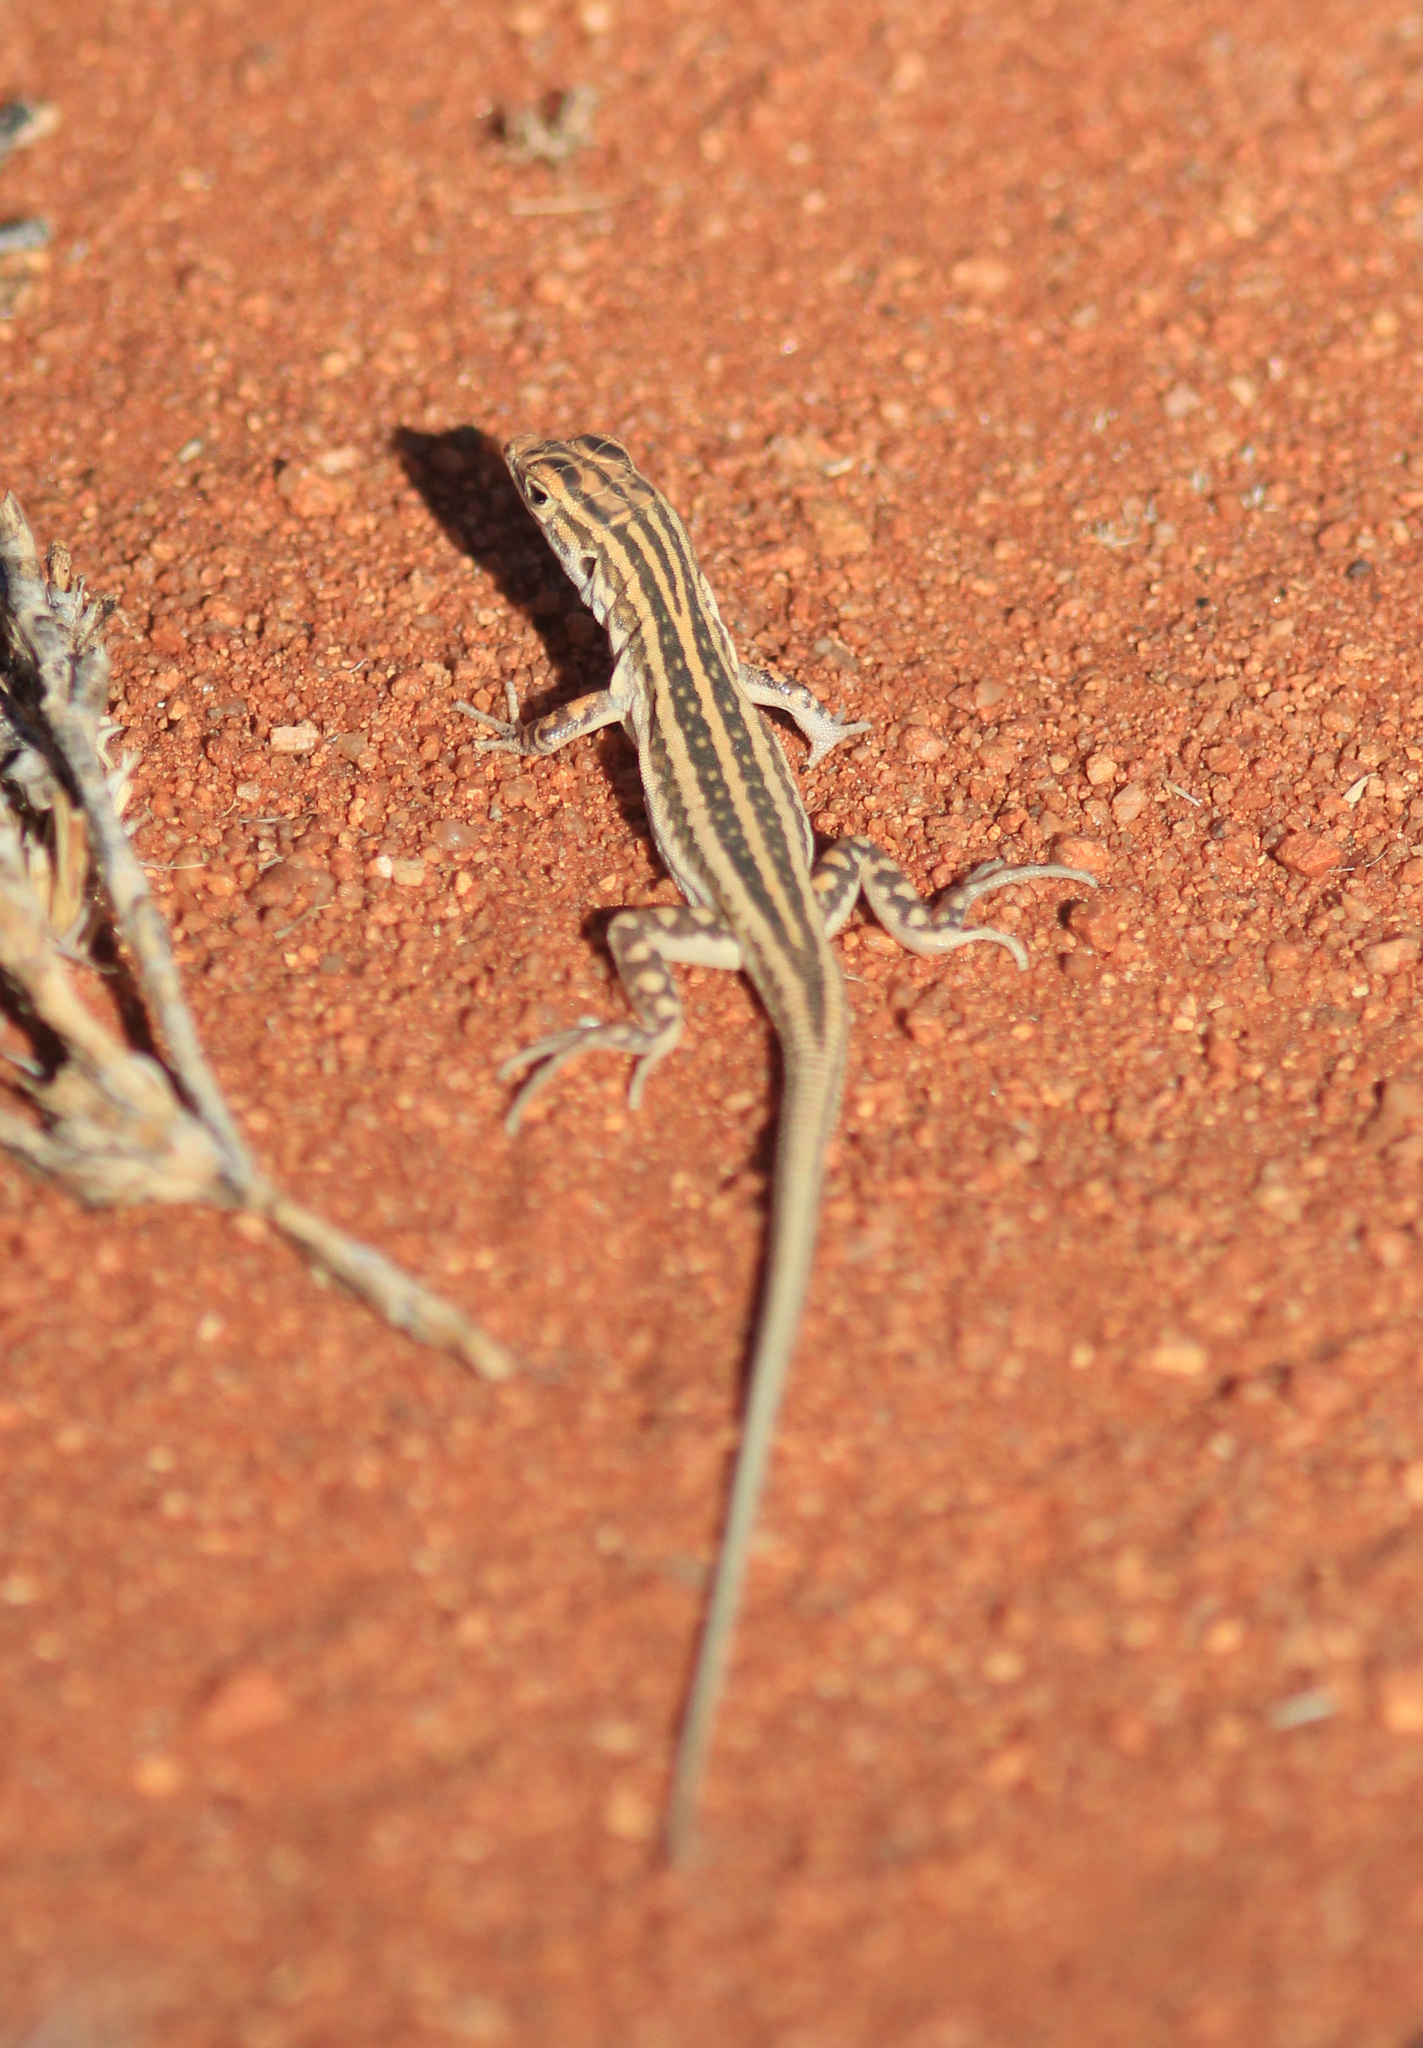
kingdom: Animalia
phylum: Chordata
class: Squamata
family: Lacertidae
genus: Meroles
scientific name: Meroles suborbitalis
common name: Spotted sand lizard
